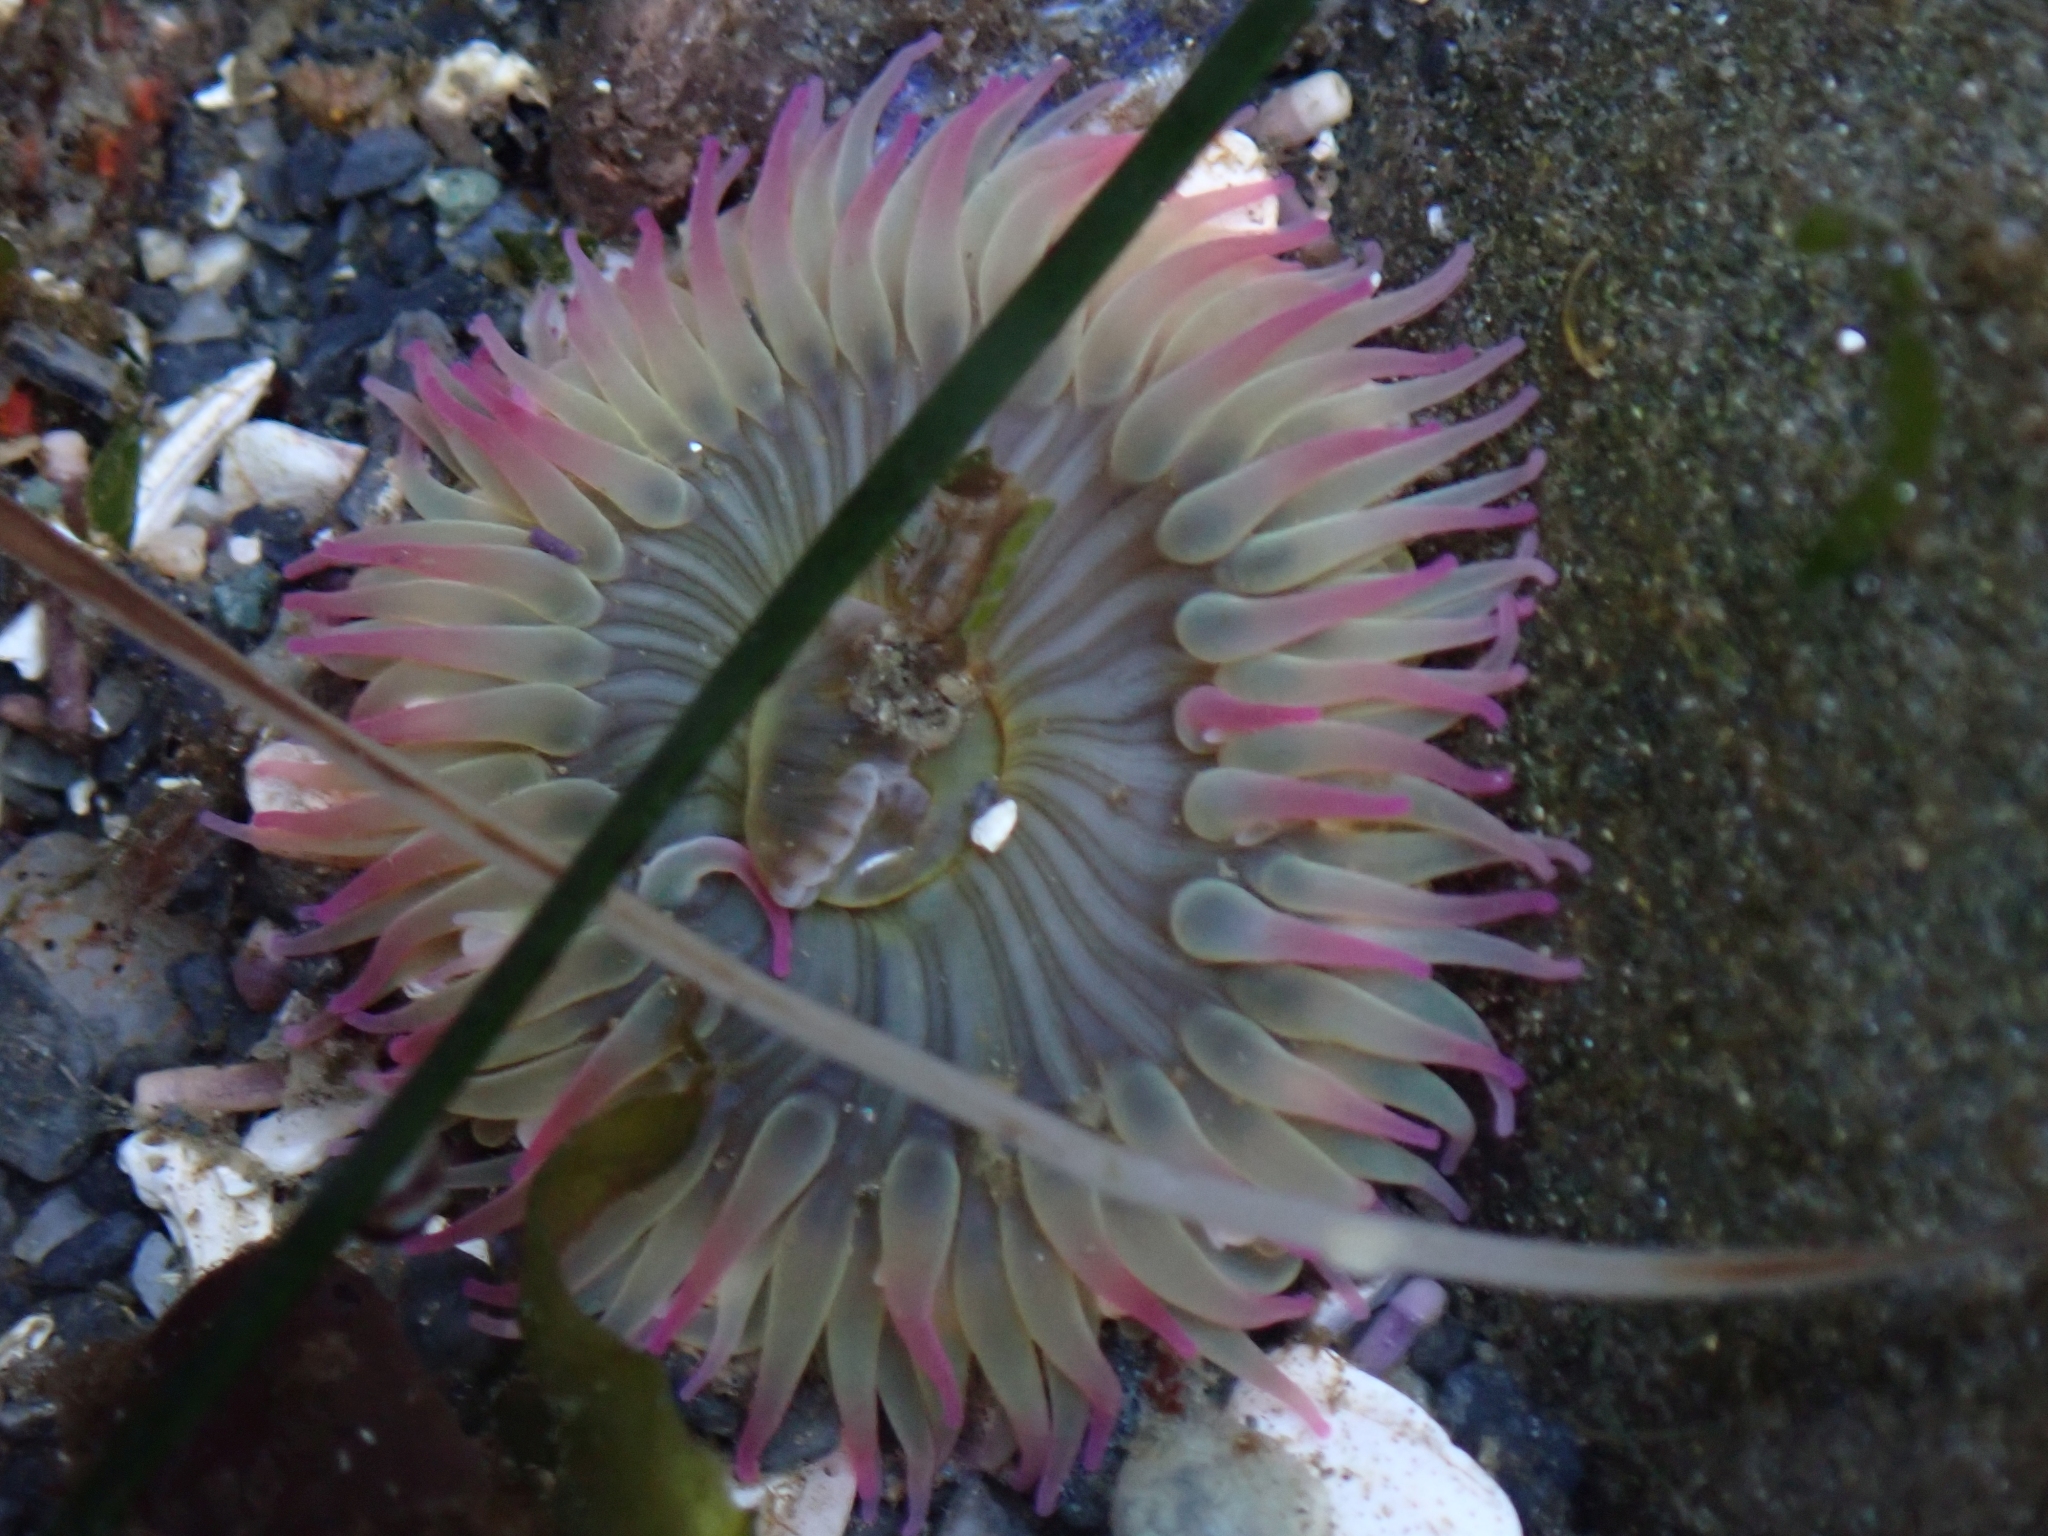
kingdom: Animalia
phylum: Cnidaria
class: Anthozoa
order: Actiniaria
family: Actiniidae
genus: Anthopleura
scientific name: Anthopleura elegantissima
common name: Clonal anemone
